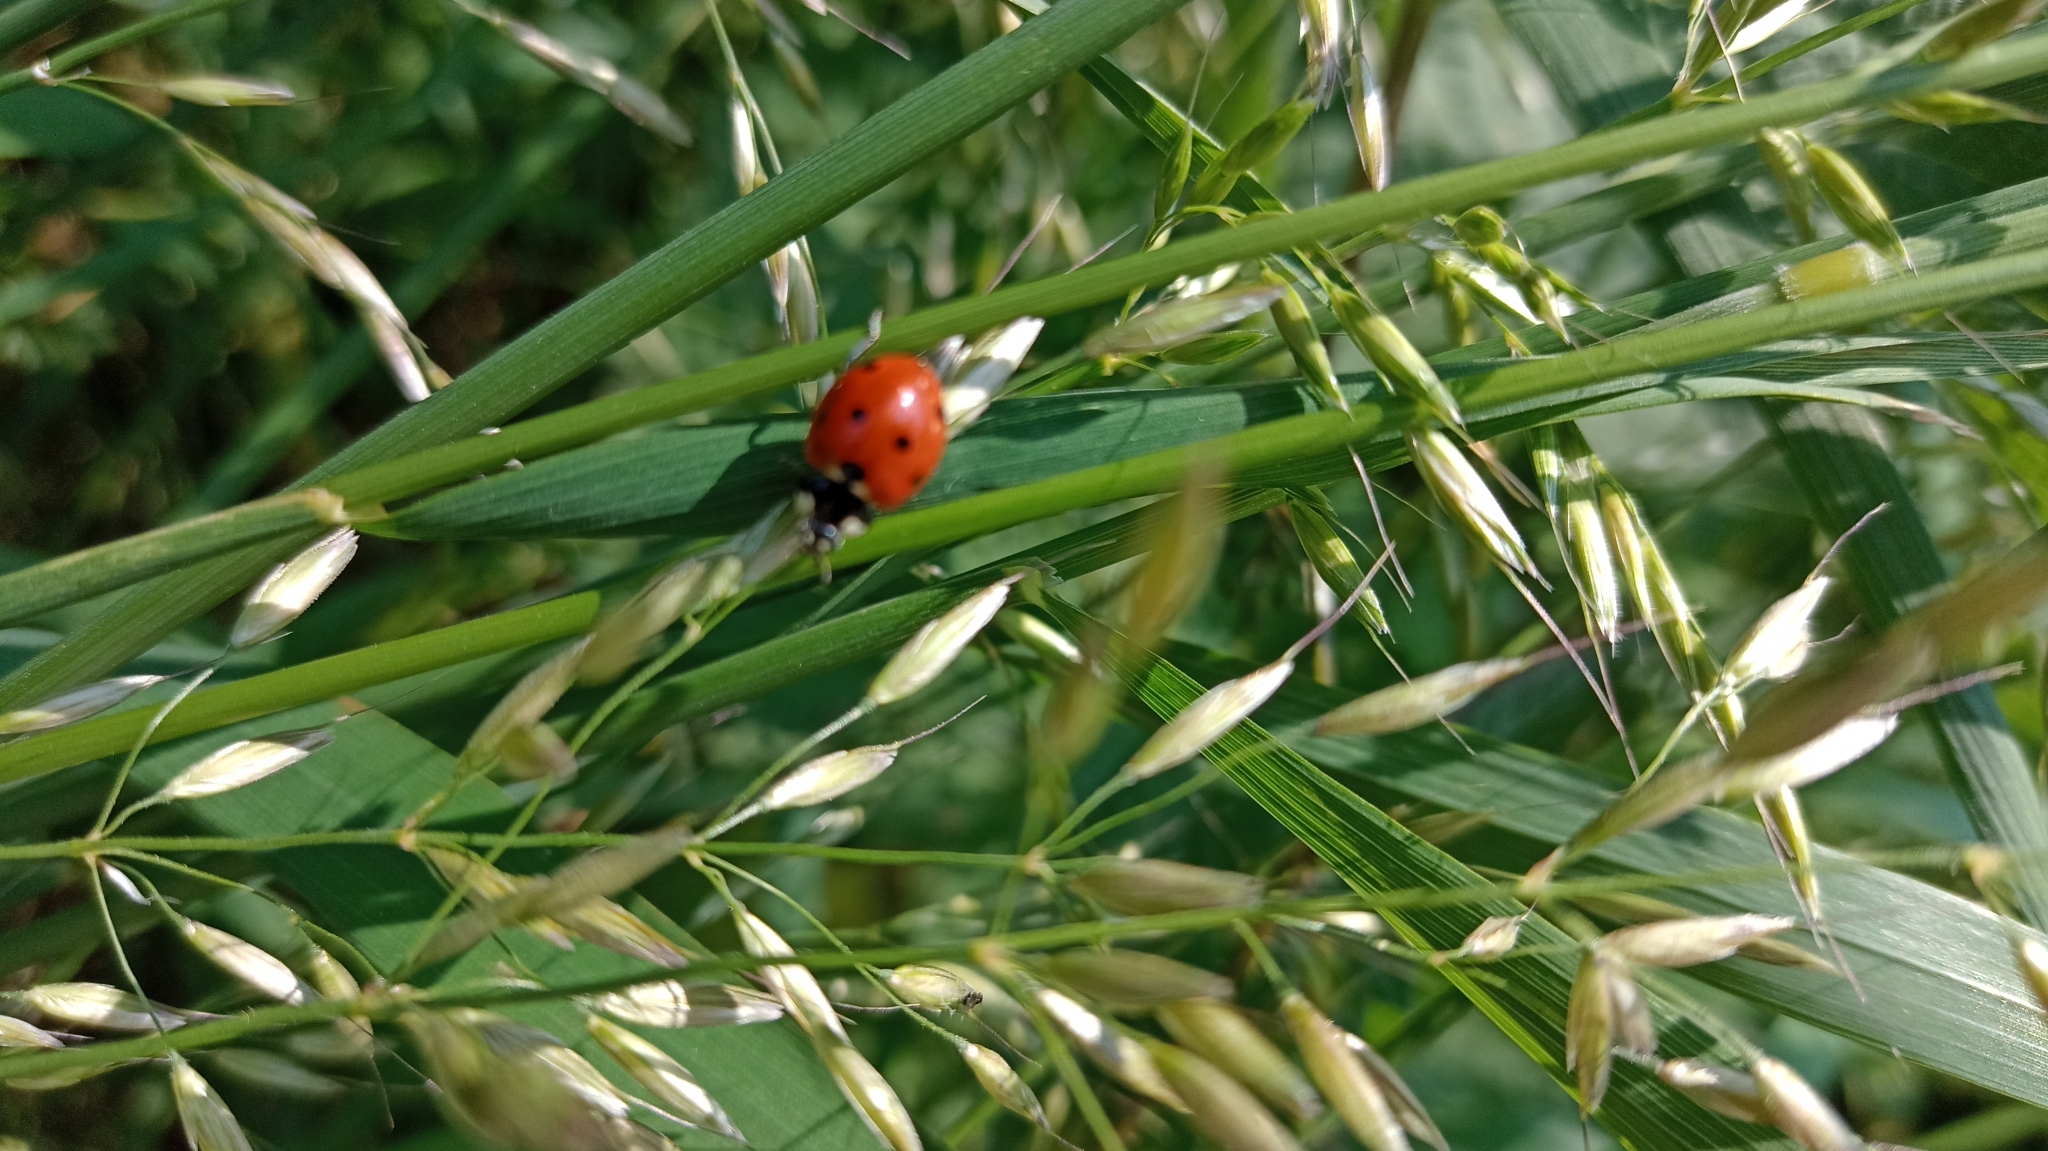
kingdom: Animalia
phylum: Arthropoda
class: Insecta
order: Coleoptera
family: Coccinellidae
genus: Coccinella
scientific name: Coccinella septempunctata
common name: Sevenspotted lady beetle
